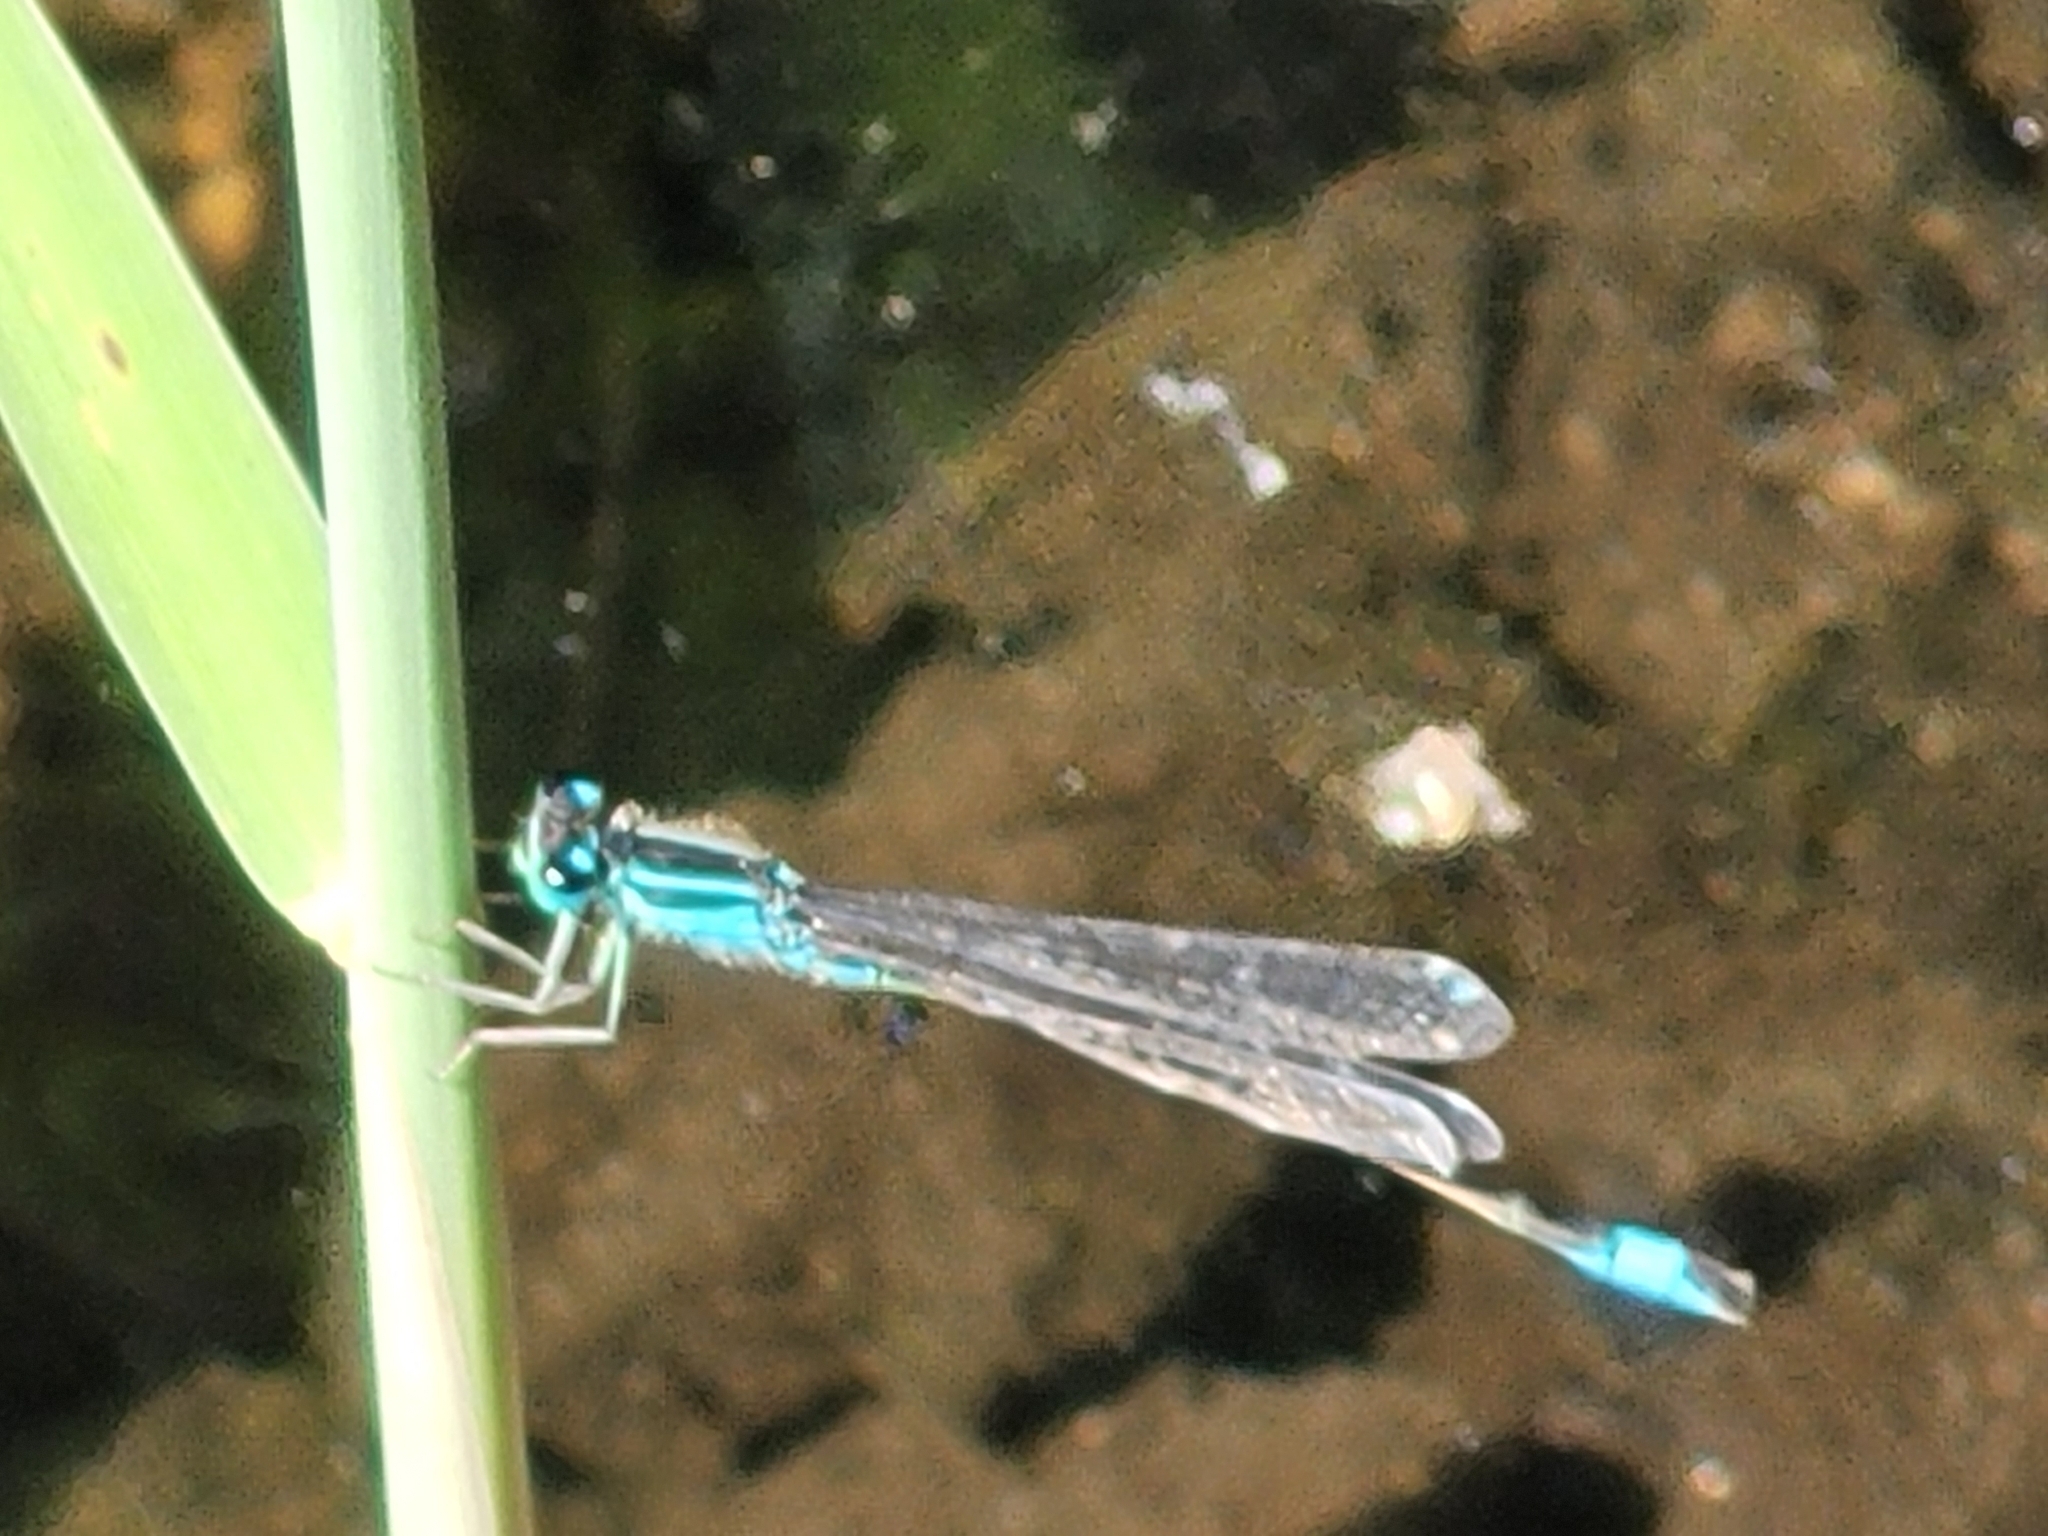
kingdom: Animalia
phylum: Arthropoda
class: Insecta
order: Odonata
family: Coenagrionidae
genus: Ischnura
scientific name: Ischnura elegans
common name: Blue-tailed damselfly
